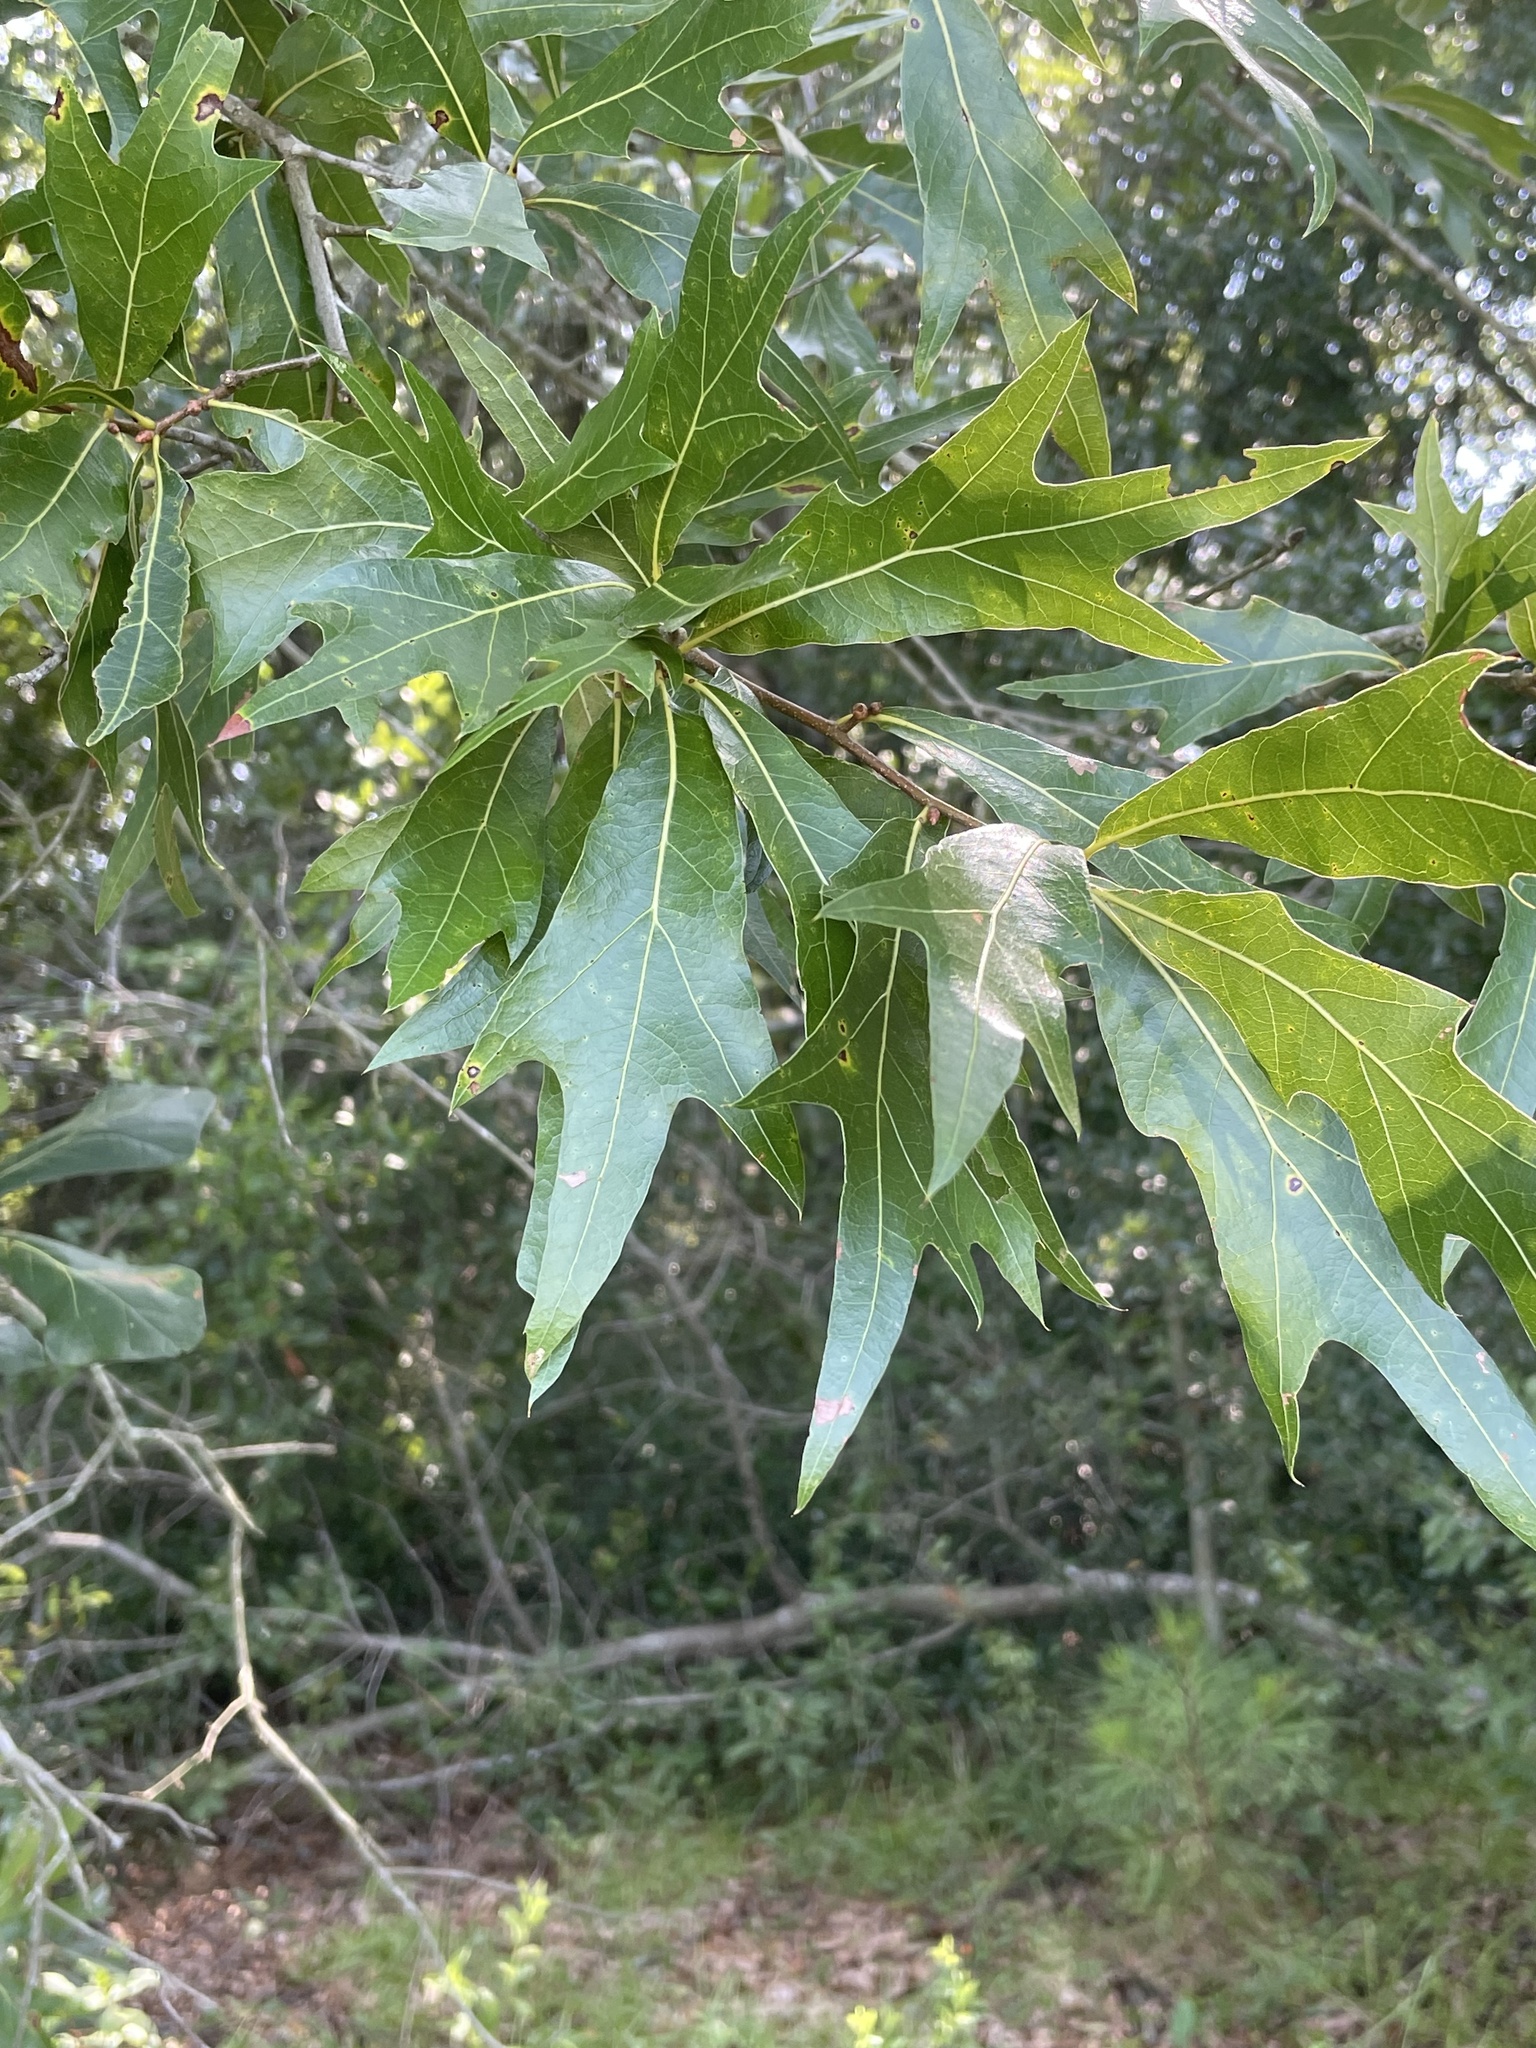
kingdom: Plantae
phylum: Tracheophyta
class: Magnoliopsida
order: Fagales
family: Fagaceae
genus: Quercus
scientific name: Quercus laevis
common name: Turkey oak
